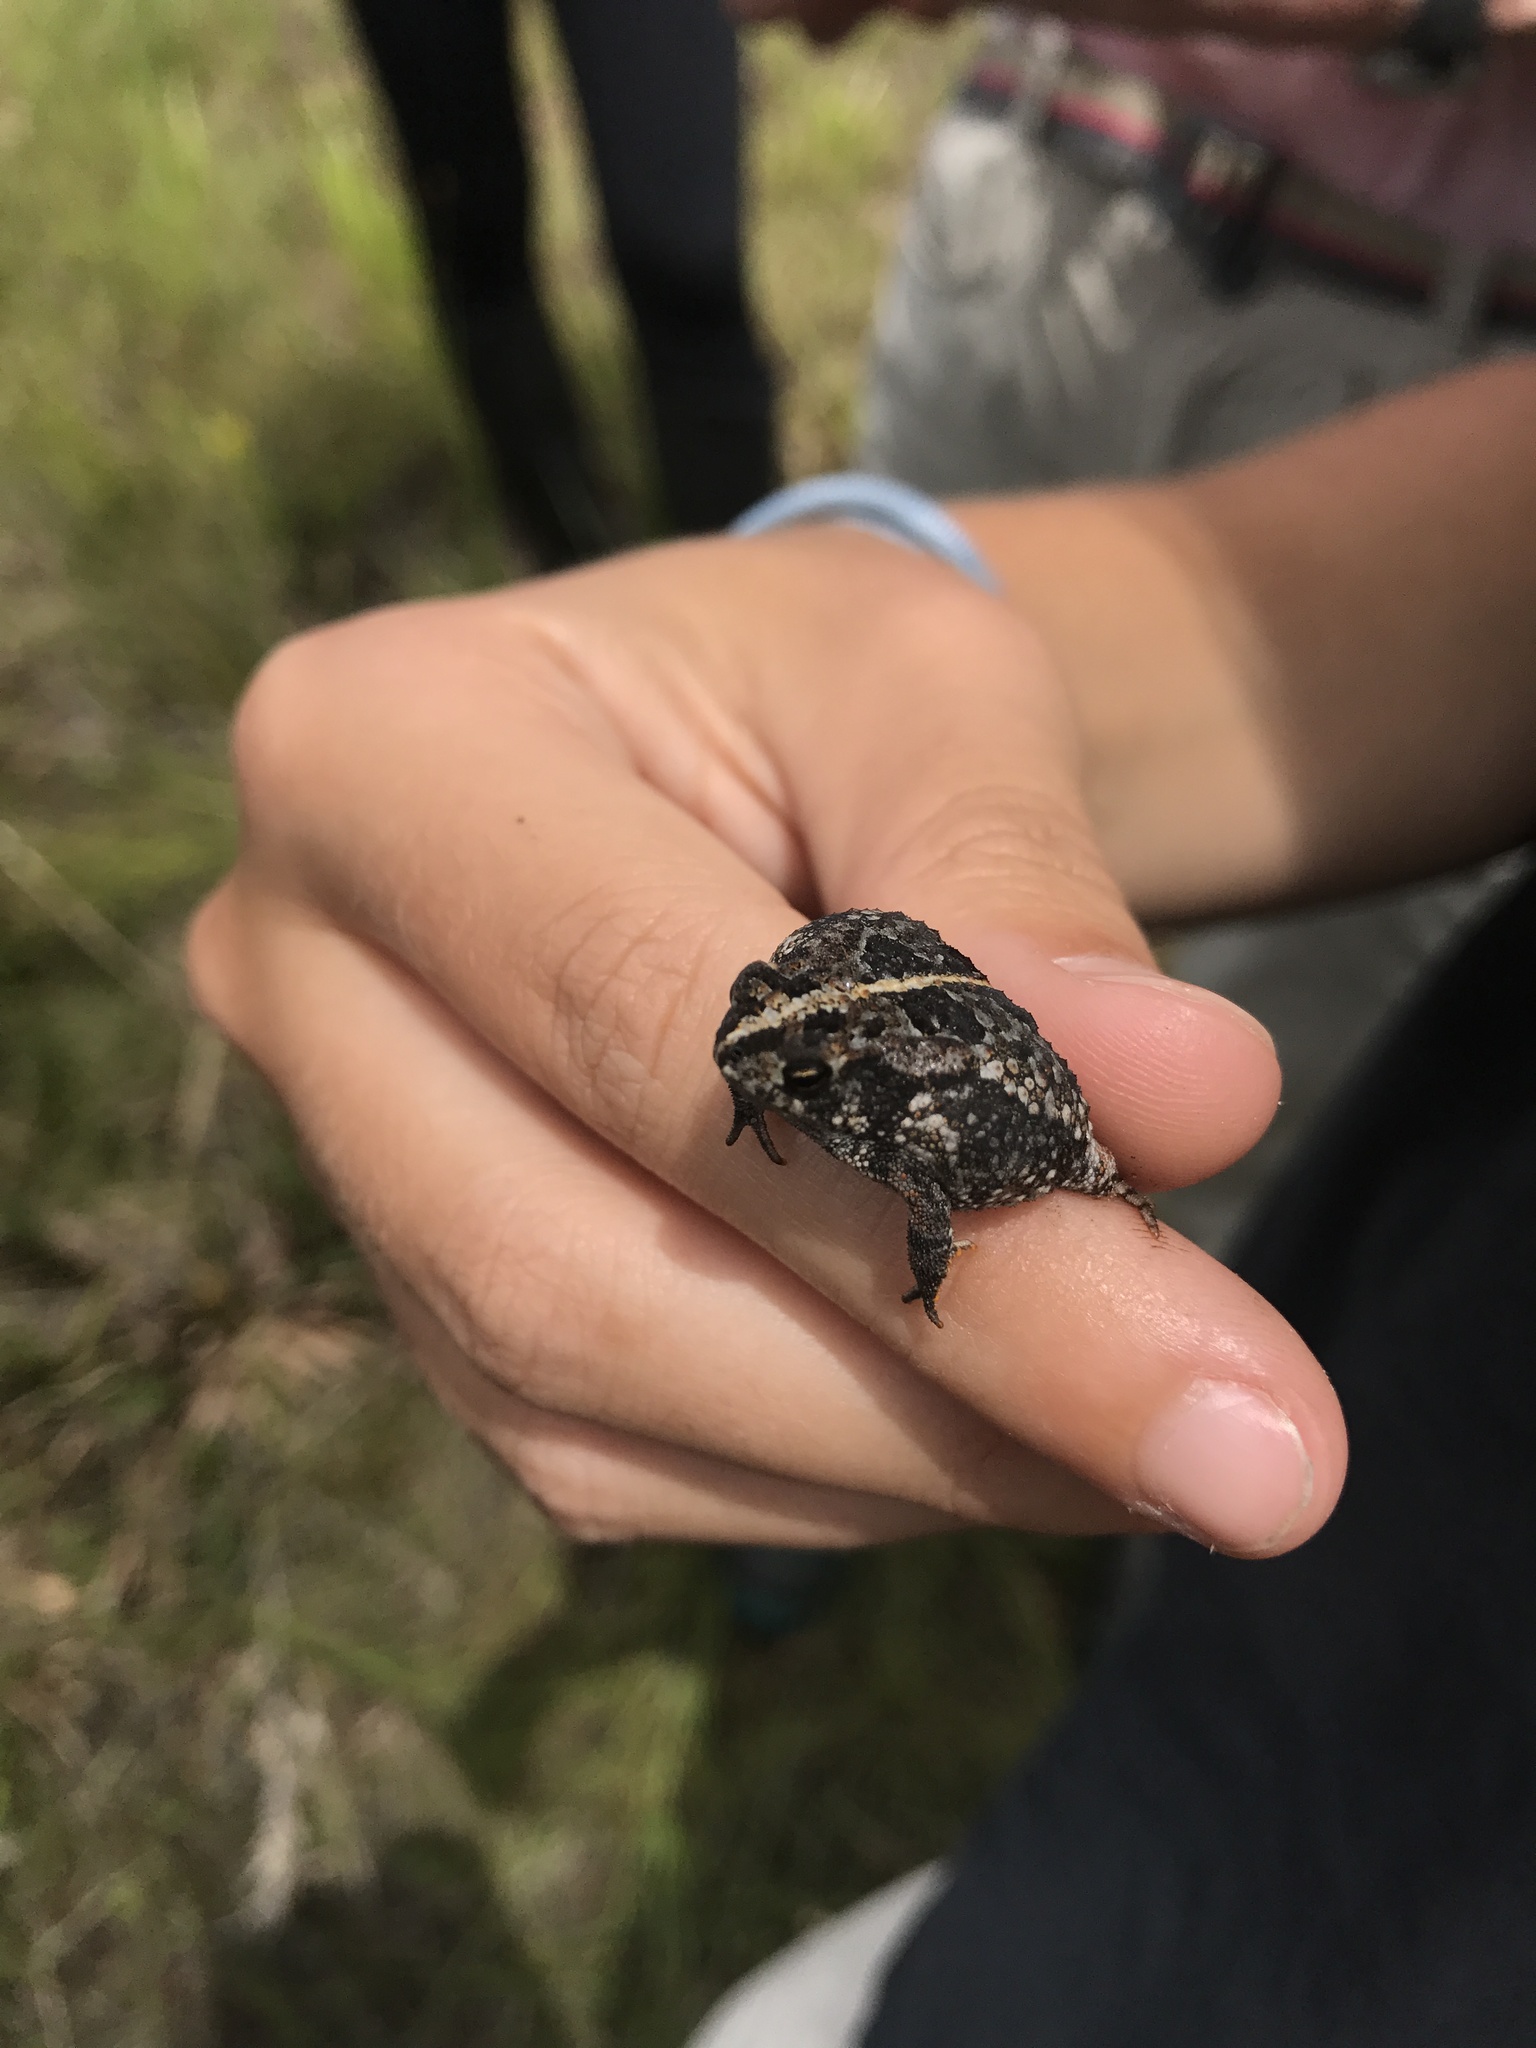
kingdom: Animalia
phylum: Chordata
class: Amphibia
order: Anura
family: Bufonidae
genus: Anaxyrus
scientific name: Anaxyrus quercicus
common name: Oak toad
